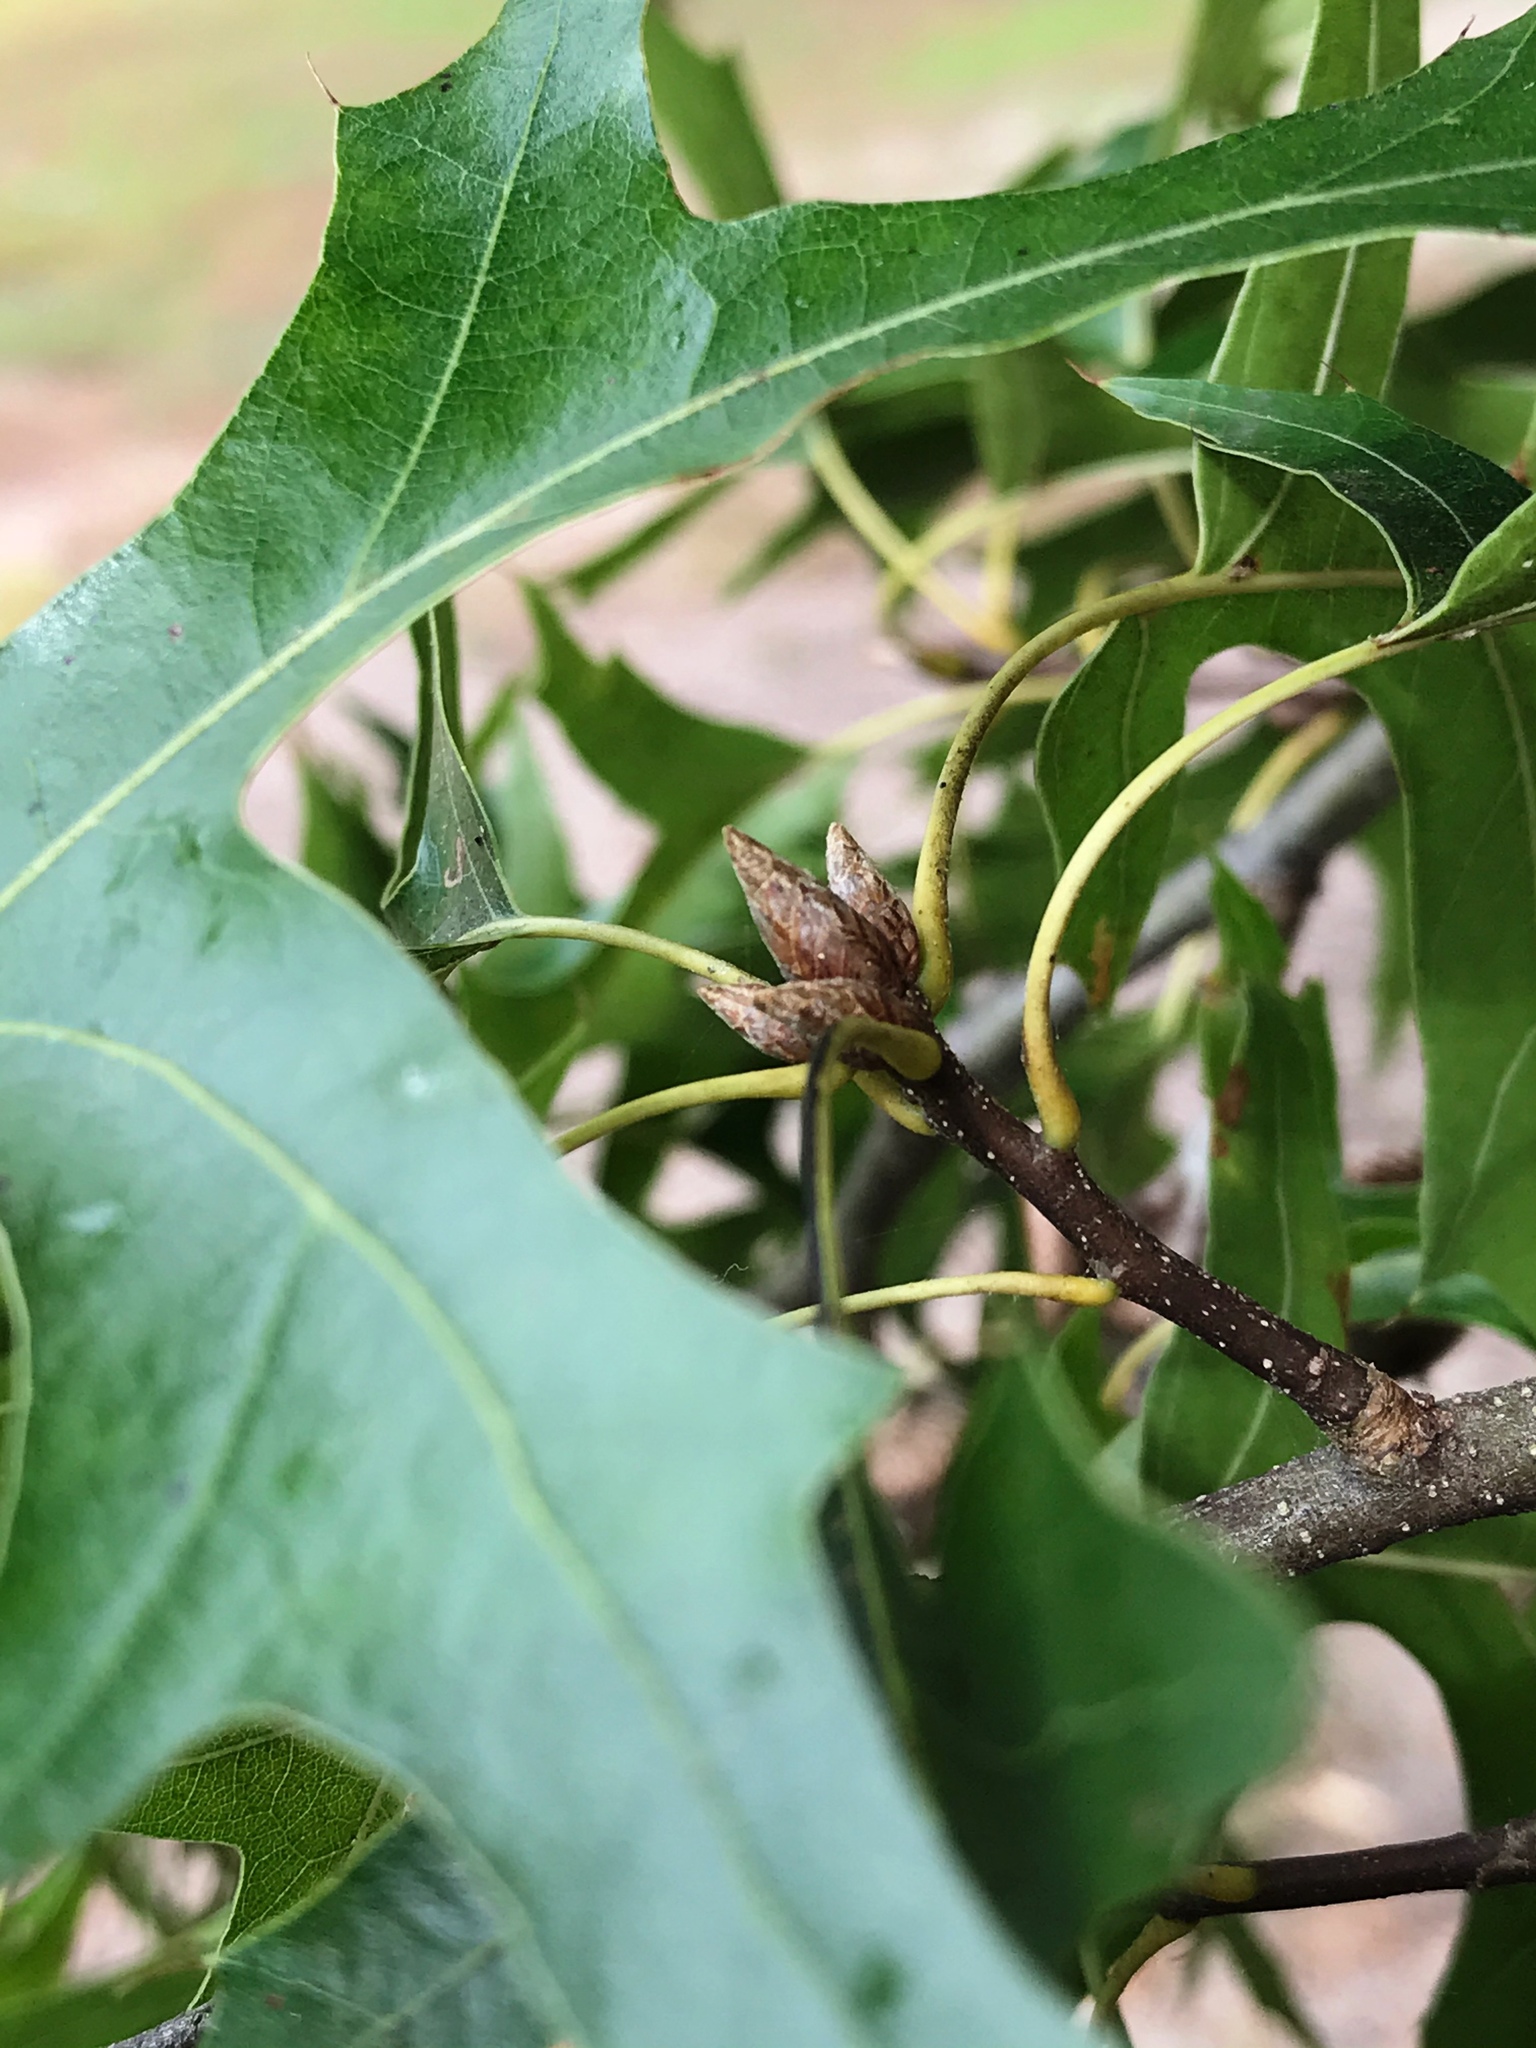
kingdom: Plantae
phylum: Tracheophyta
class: Magnoliopsida
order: Fagales
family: Fagaceae
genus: Quercus
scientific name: Quercus palustris
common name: Pin oak
